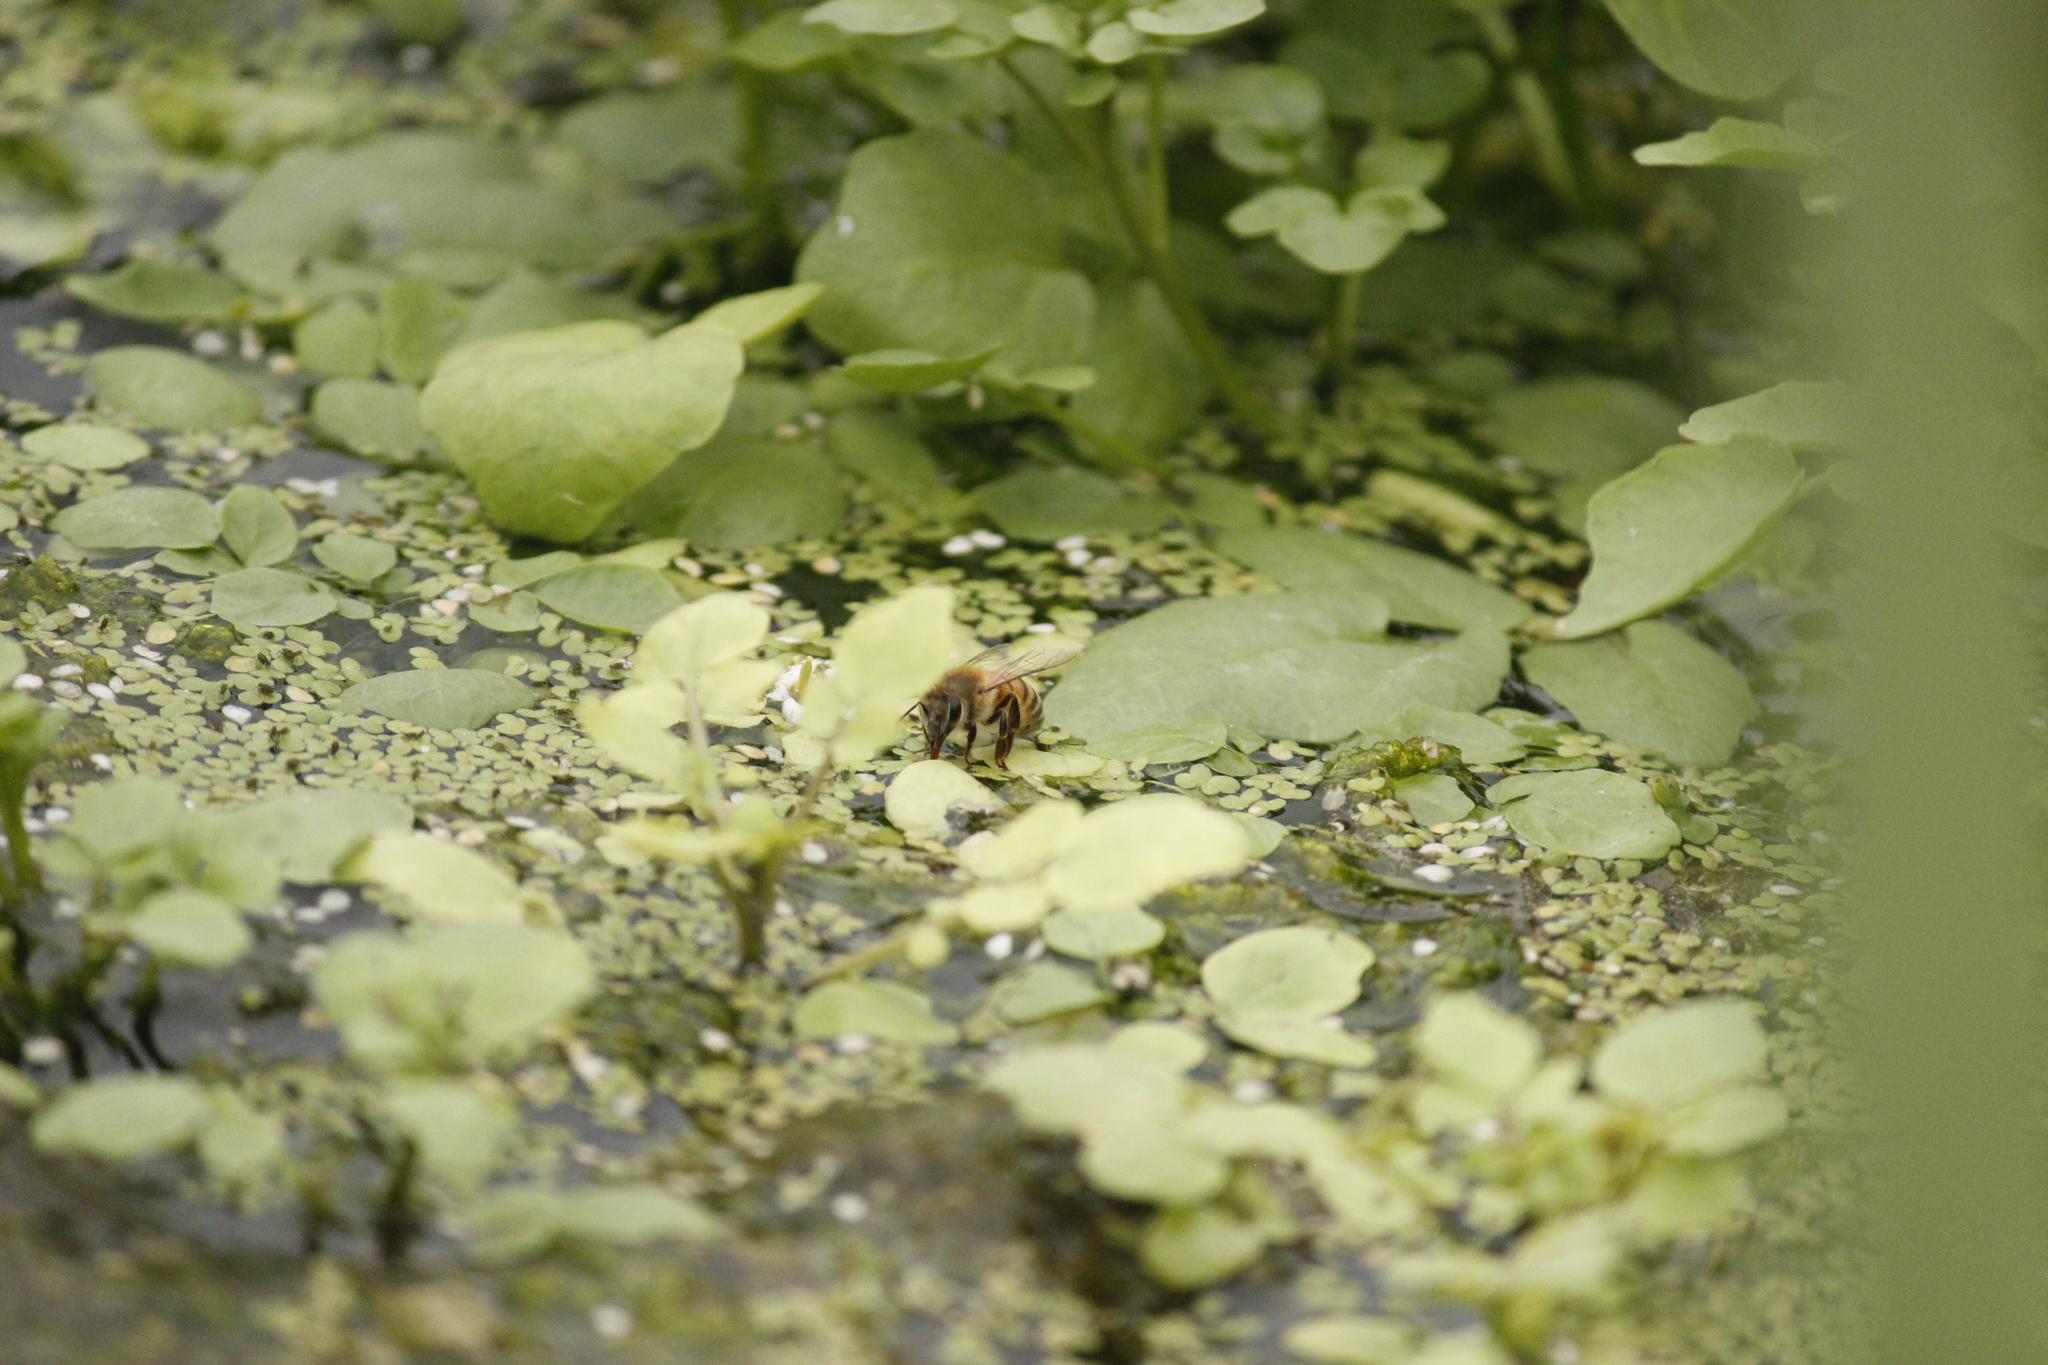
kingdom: Animalia
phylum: Arthropoda
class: Insecta
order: Hymenoptera
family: Apidae
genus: Apis
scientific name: Apis mellifera
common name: Honey bee
